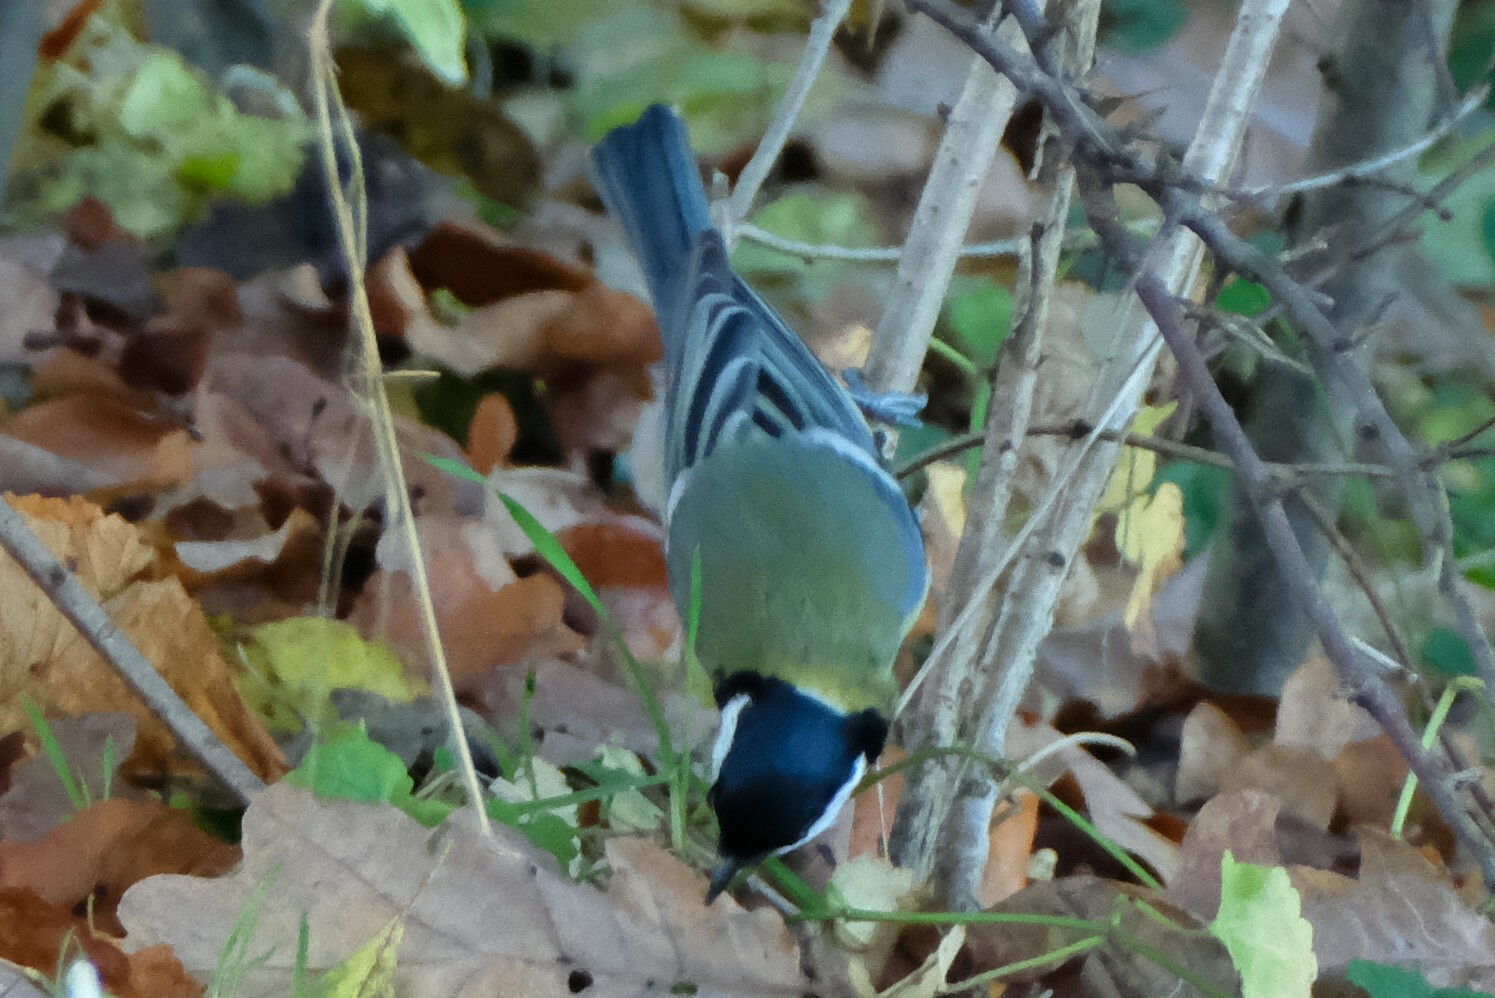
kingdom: Animalia
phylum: Chordata
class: Aves
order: Passeriformes
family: Paridae
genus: Parus
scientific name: Parus major
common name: Great tit
